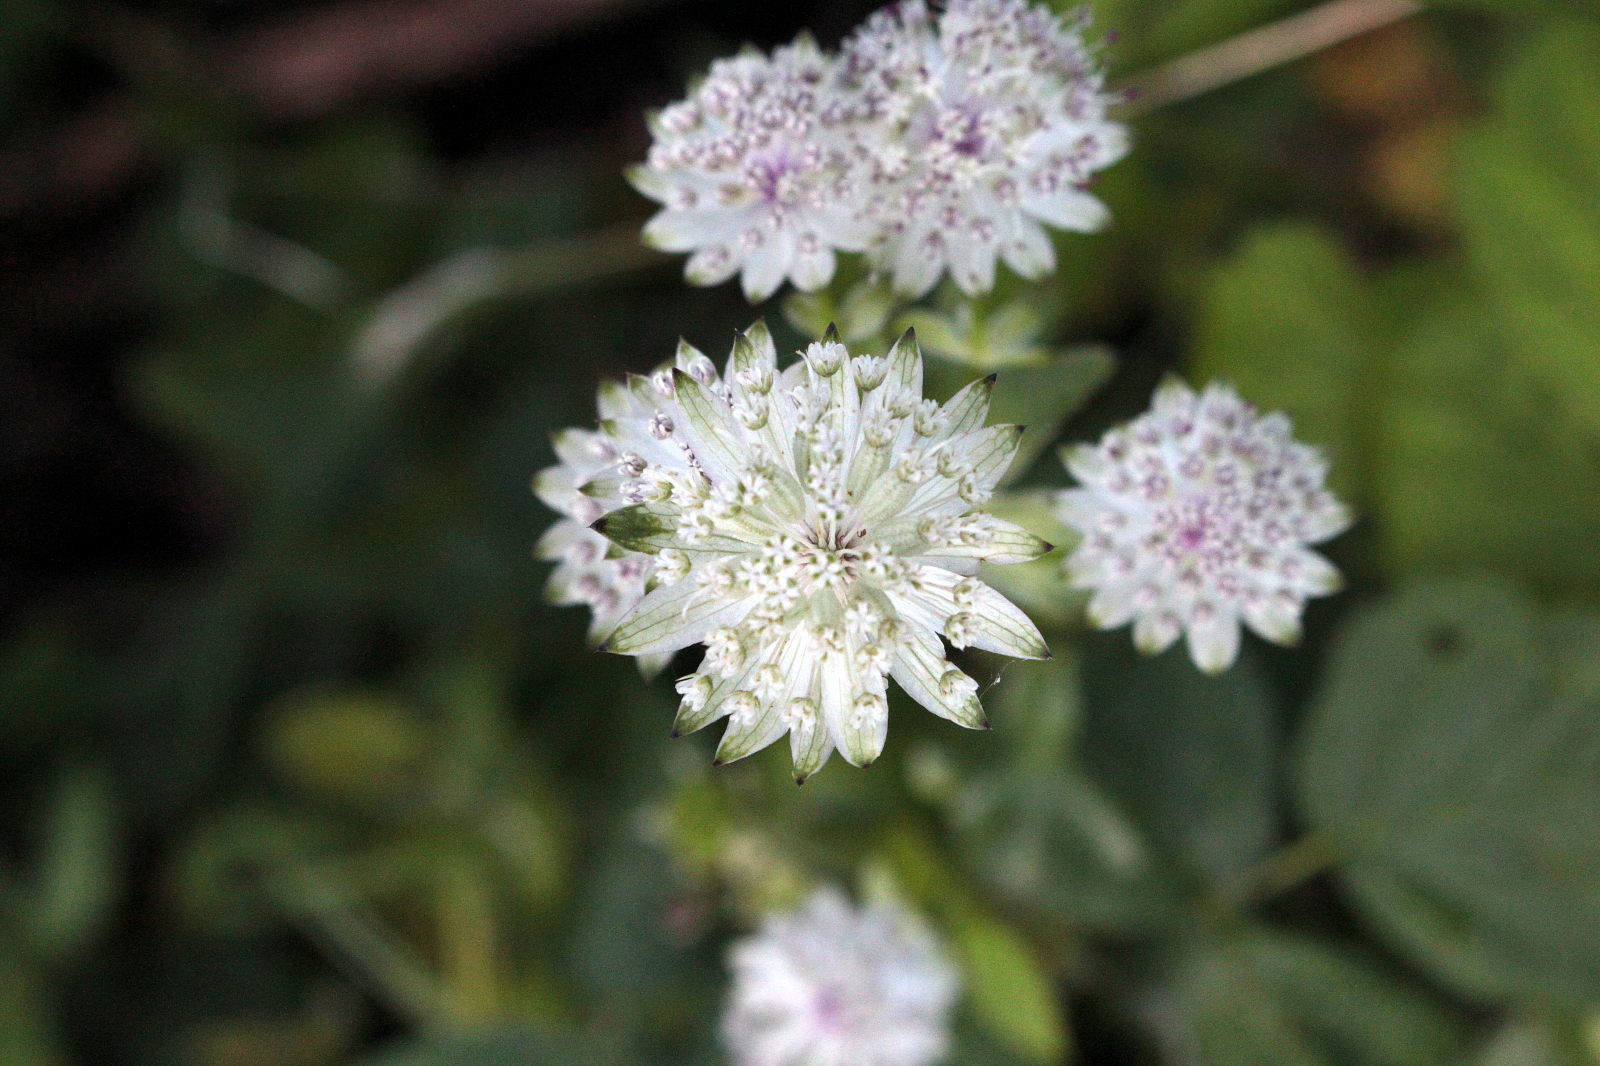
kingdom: Plantae
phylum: Tracheophyta
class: Magnoliopsida
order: Apiales
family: Apiaceae
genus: Astrantia
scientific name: Astrantia major
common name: Greater masterwort
